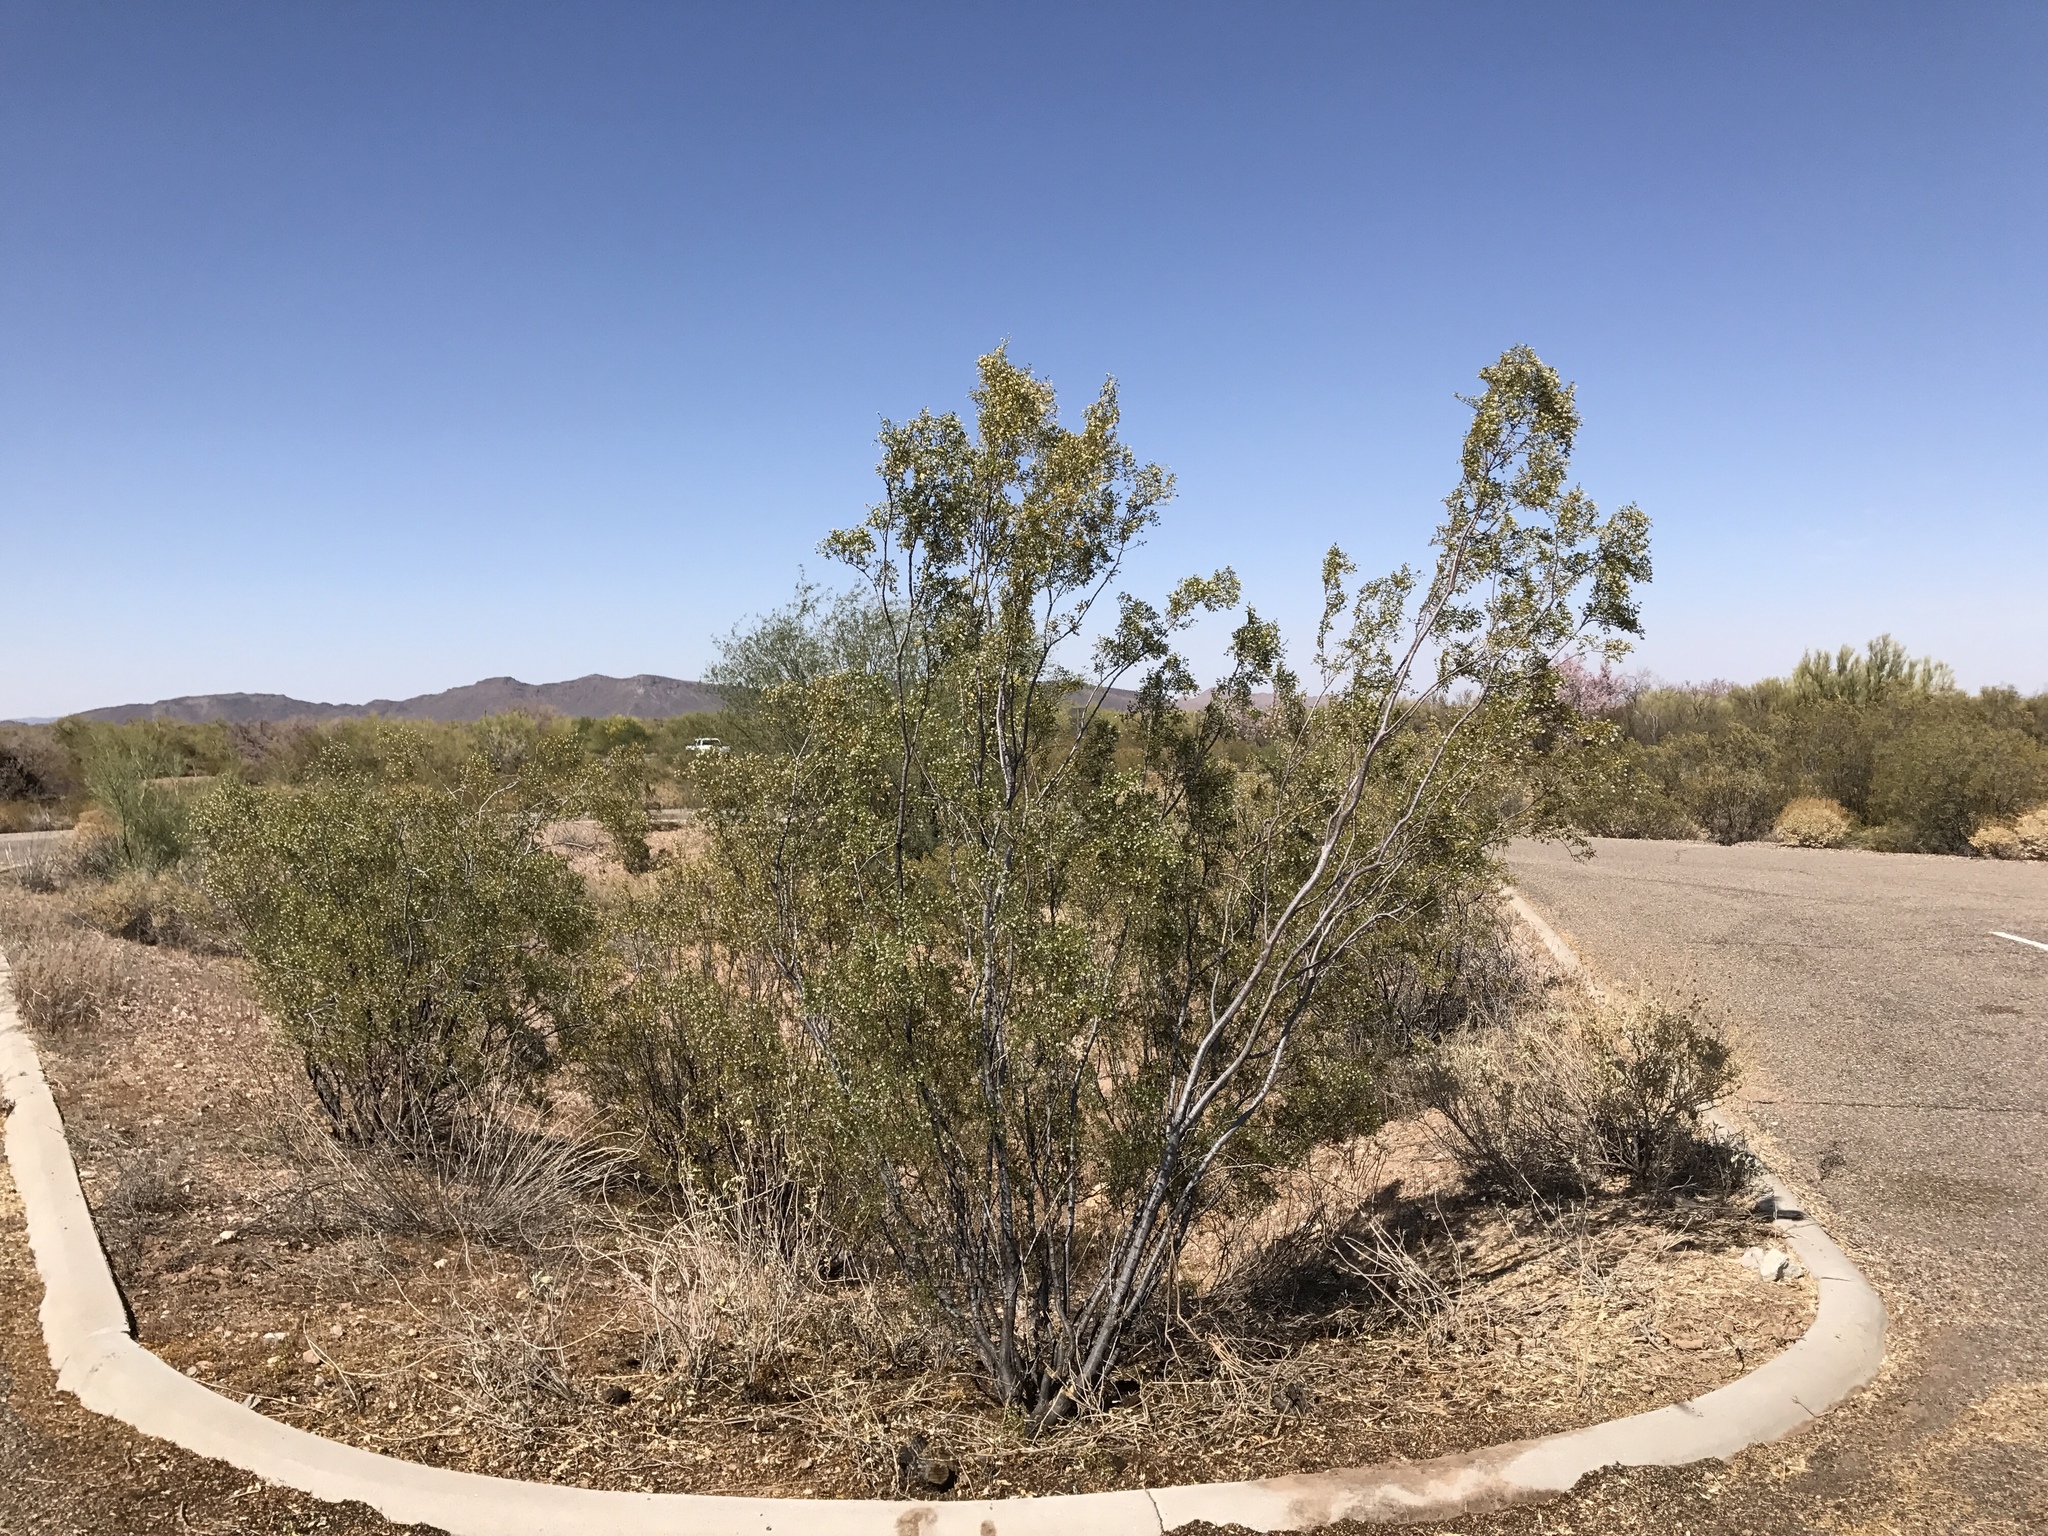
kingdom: Plantae
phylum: Tracheophyta
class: Magnoliopsida
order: Zygophyllales
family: Zygophyllaceae
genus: Larrea
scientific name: Larrea tridentata
